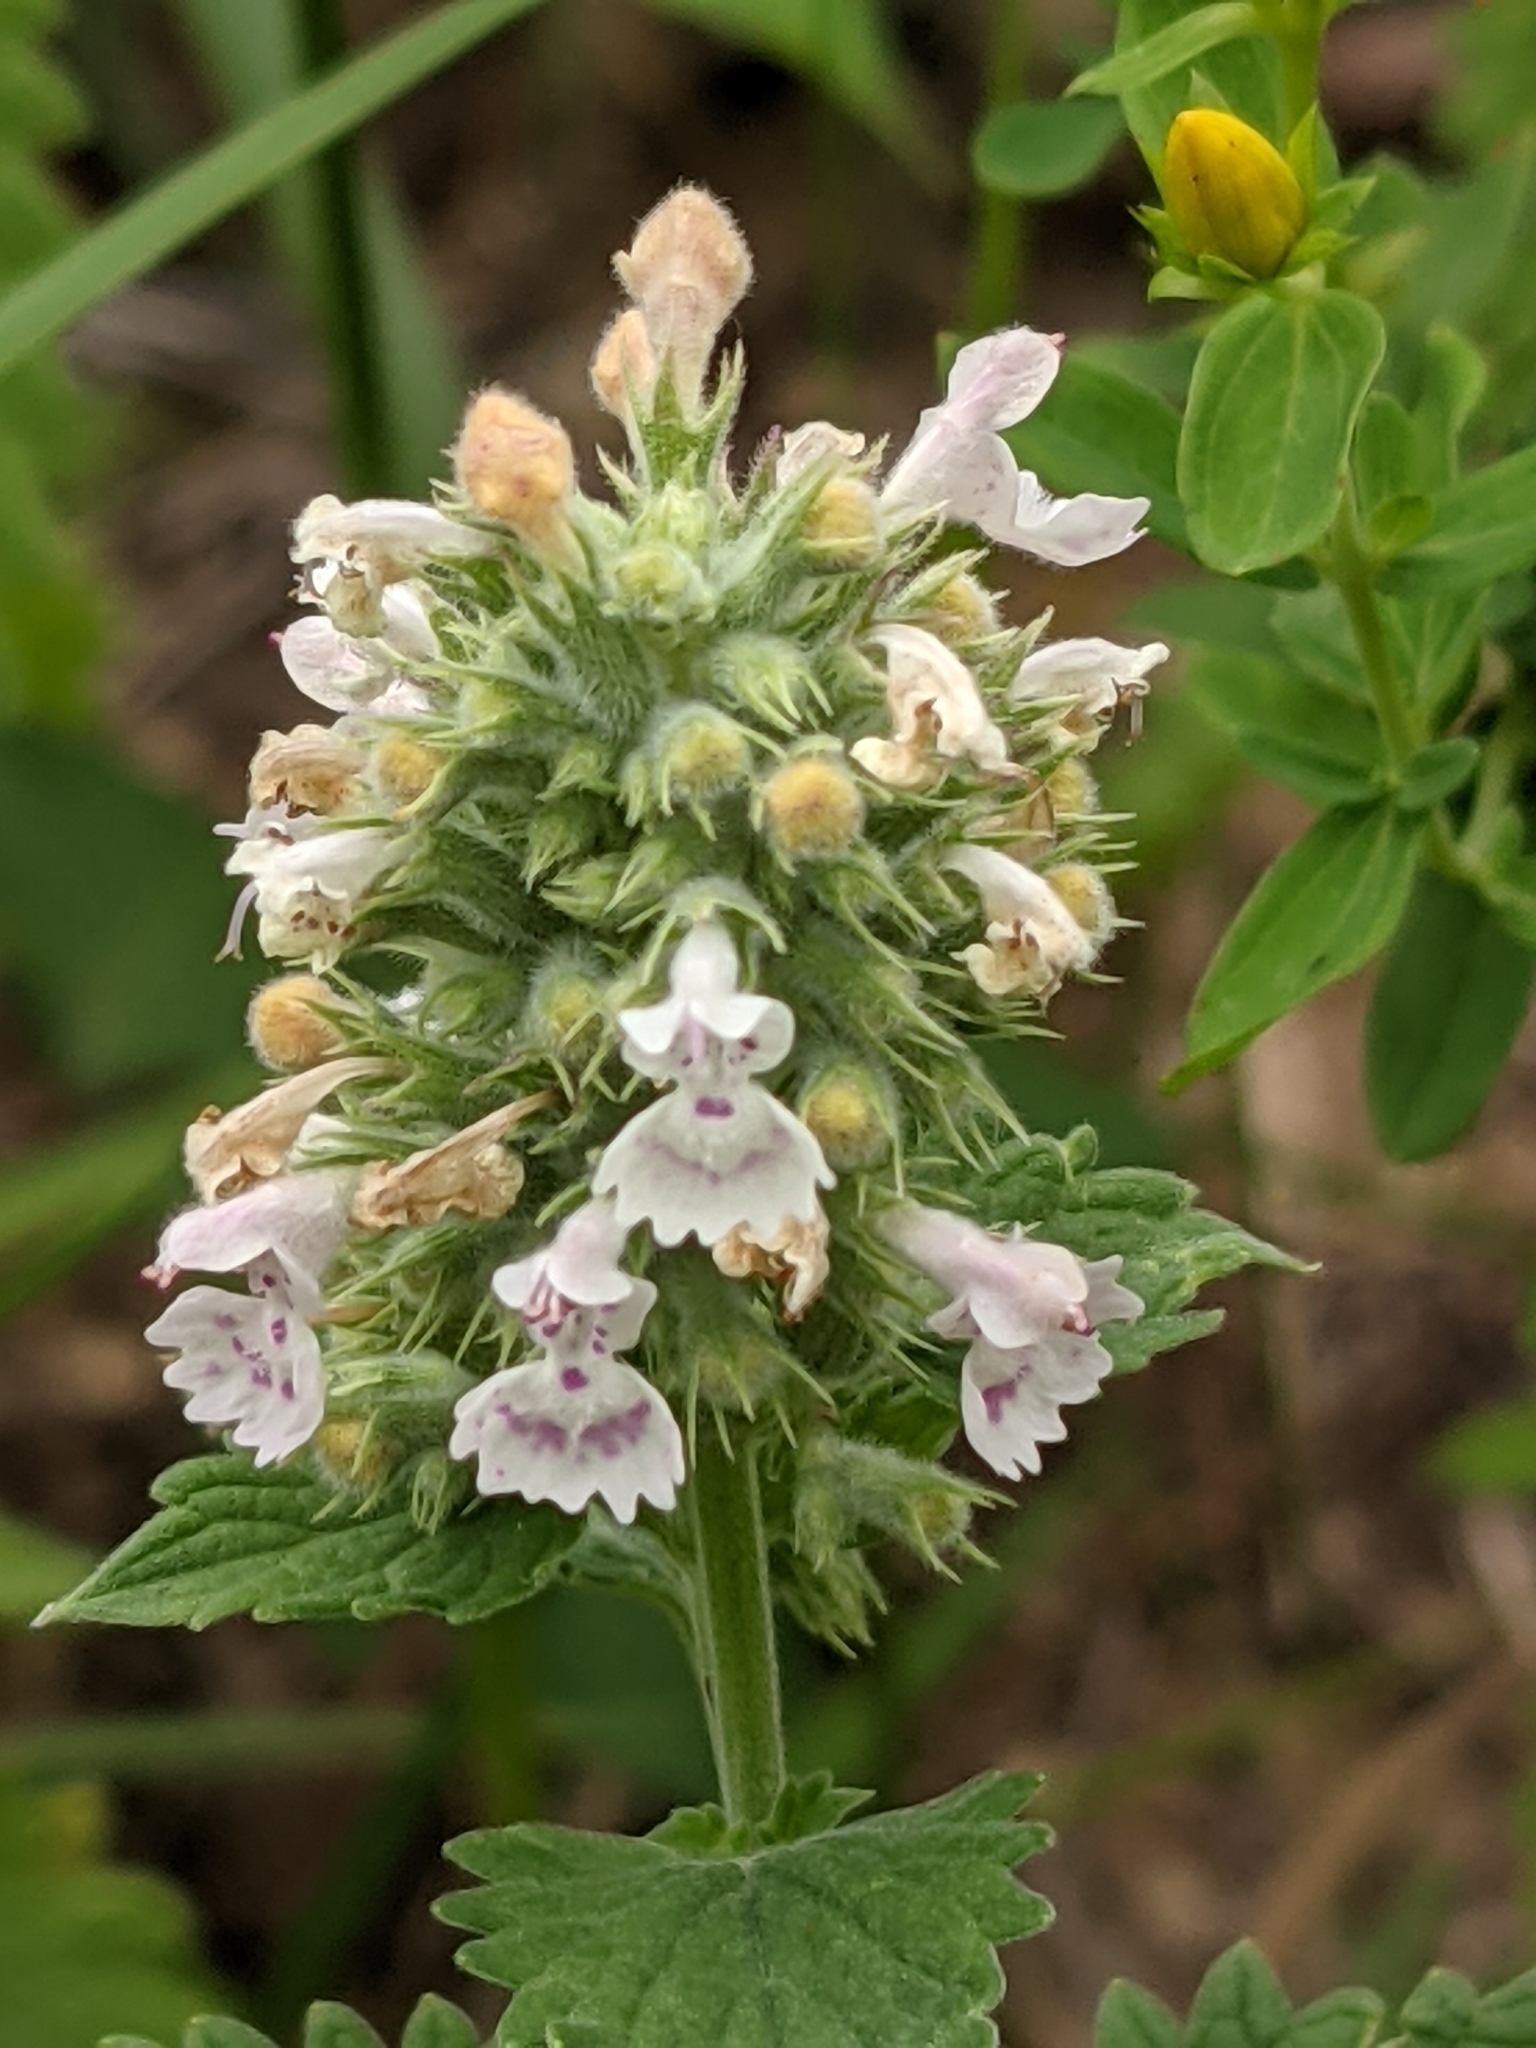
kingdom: Plantae
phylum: Tracheophyta
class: Magnoliopsida
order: Lamiales
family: Lamiaceae
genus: Nepeta
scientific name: Nepeta cataria
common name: Catnip
